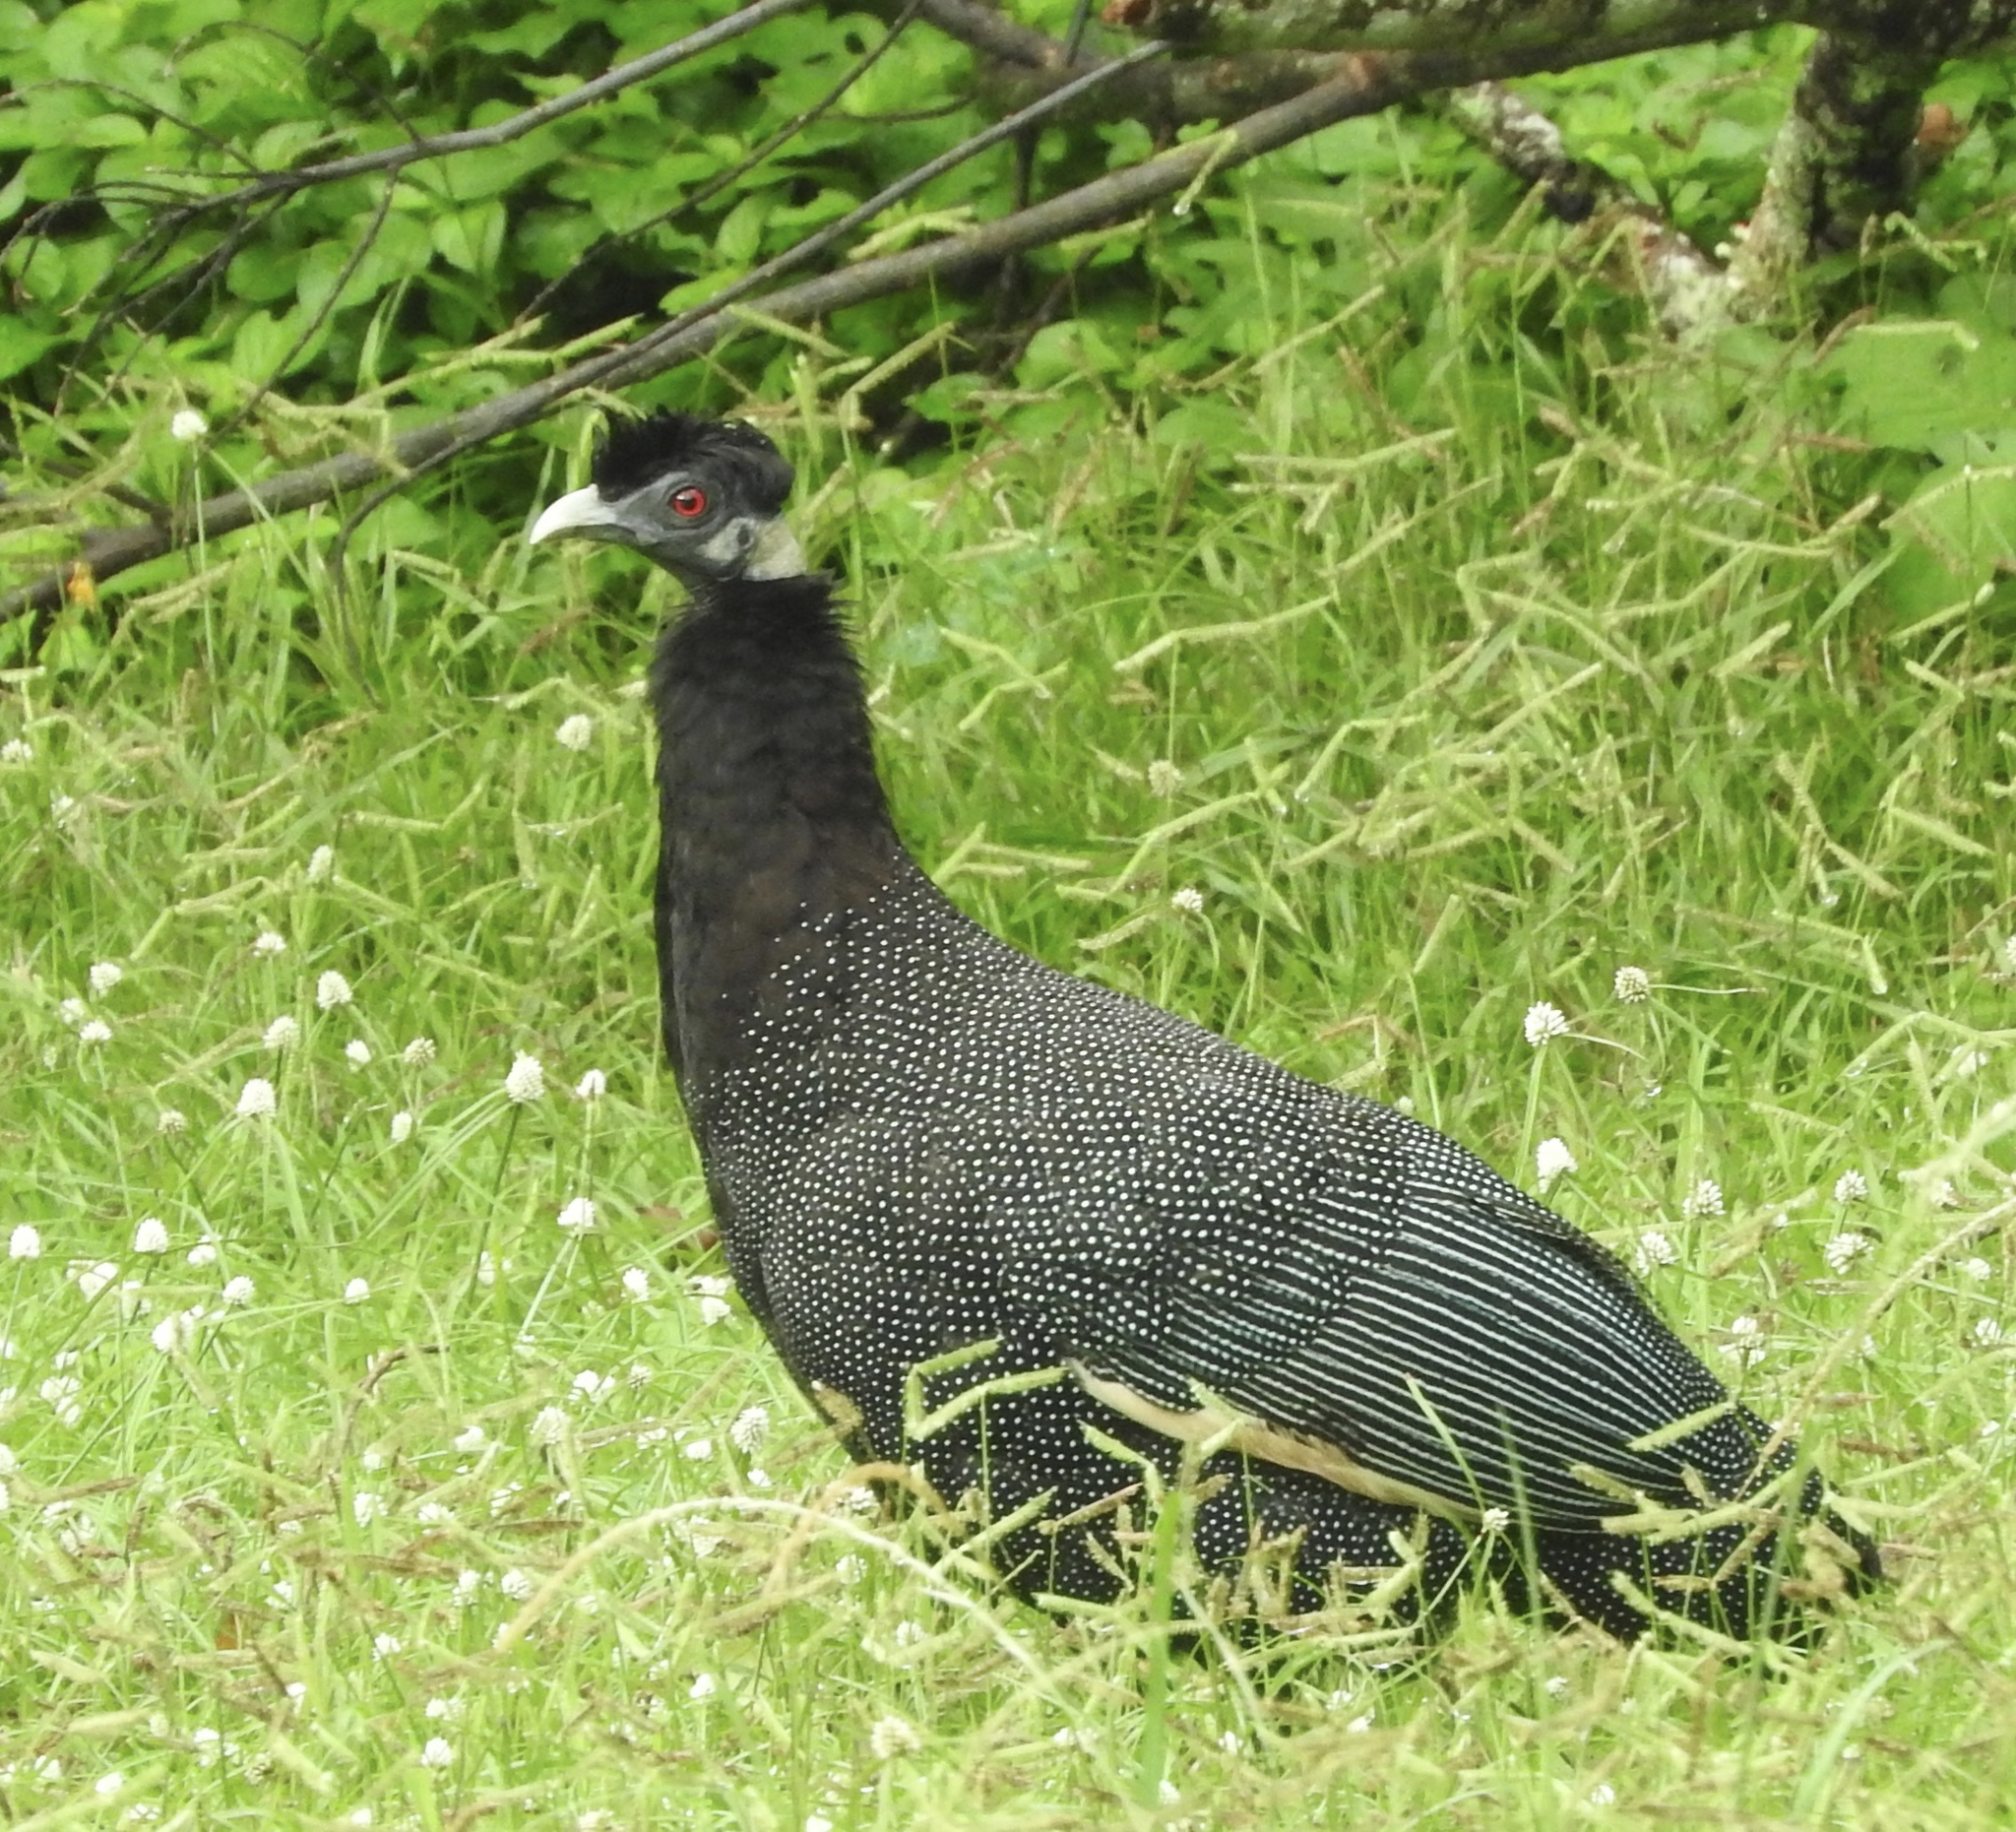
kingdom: Animalia
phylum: Chordata
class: Aves
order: Galliformes
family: Numididae
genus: Guttera
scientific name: Guttera pucherani
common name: Crested guineafowl
